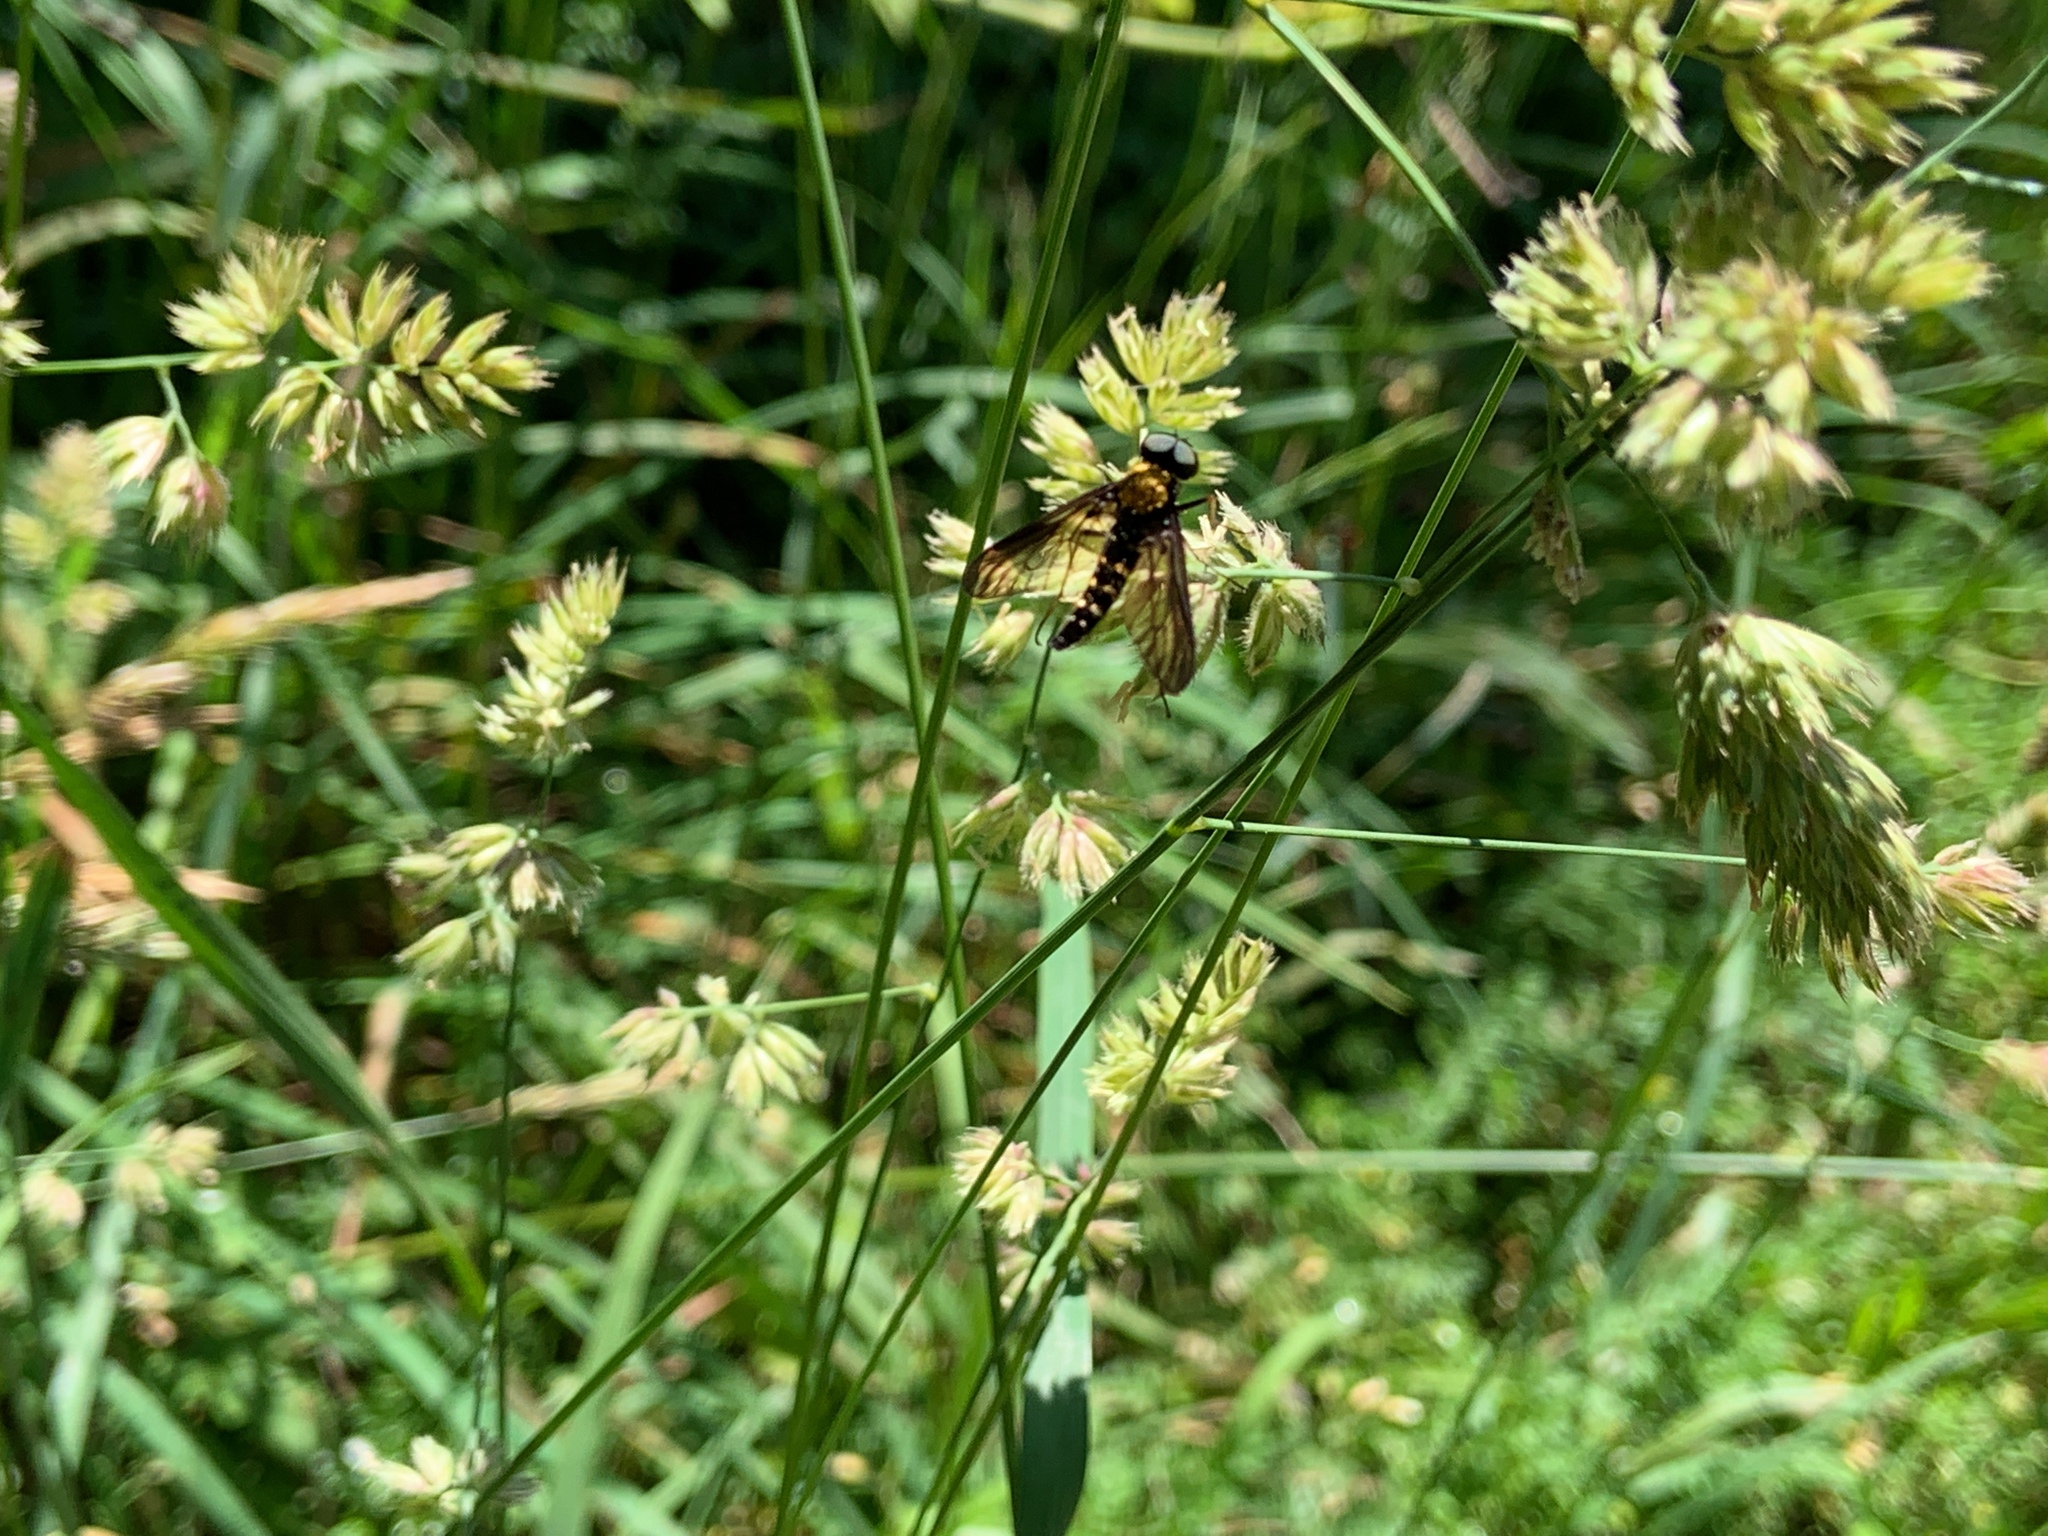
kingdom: Animalia
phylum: Arthropoda
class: Insecta
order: Diptera
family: Rhagionidae
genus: Chrysopilus
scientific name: Chrysopilus thoracicus
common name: Golden-backed snipe fly
